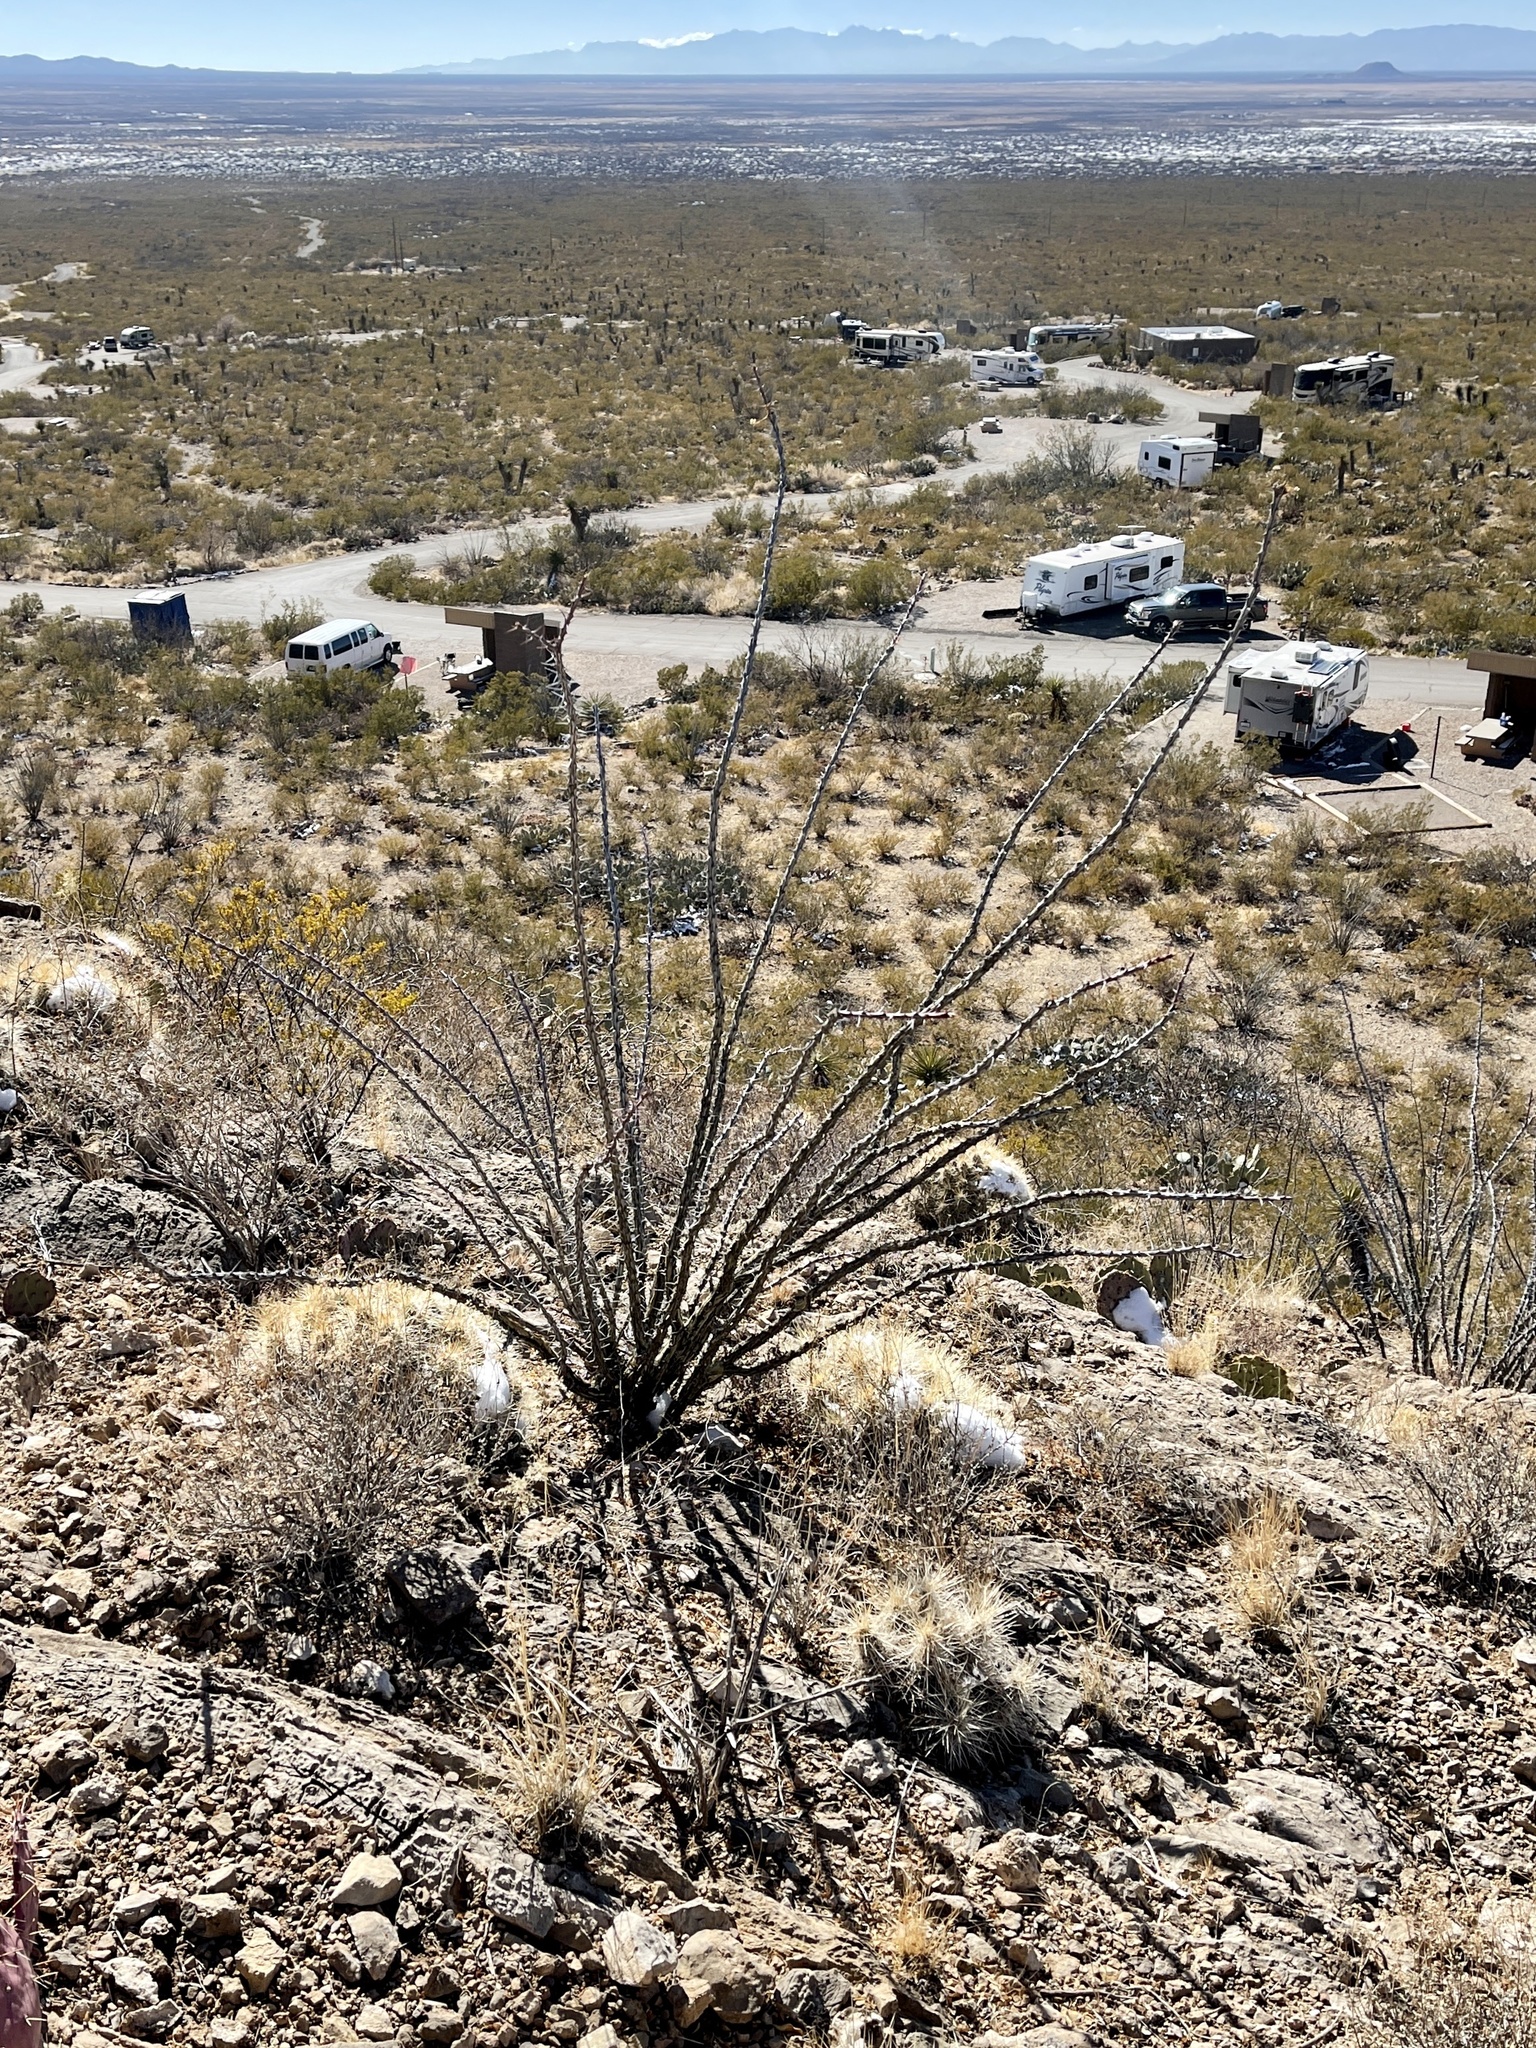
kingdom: Plantae
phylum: Tracheophyta
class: Magnoliopsida
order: Ericales
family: Fouquieriaceae
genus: Fouquieria
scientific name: Fouquieria splendens
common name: Vine-cactus
